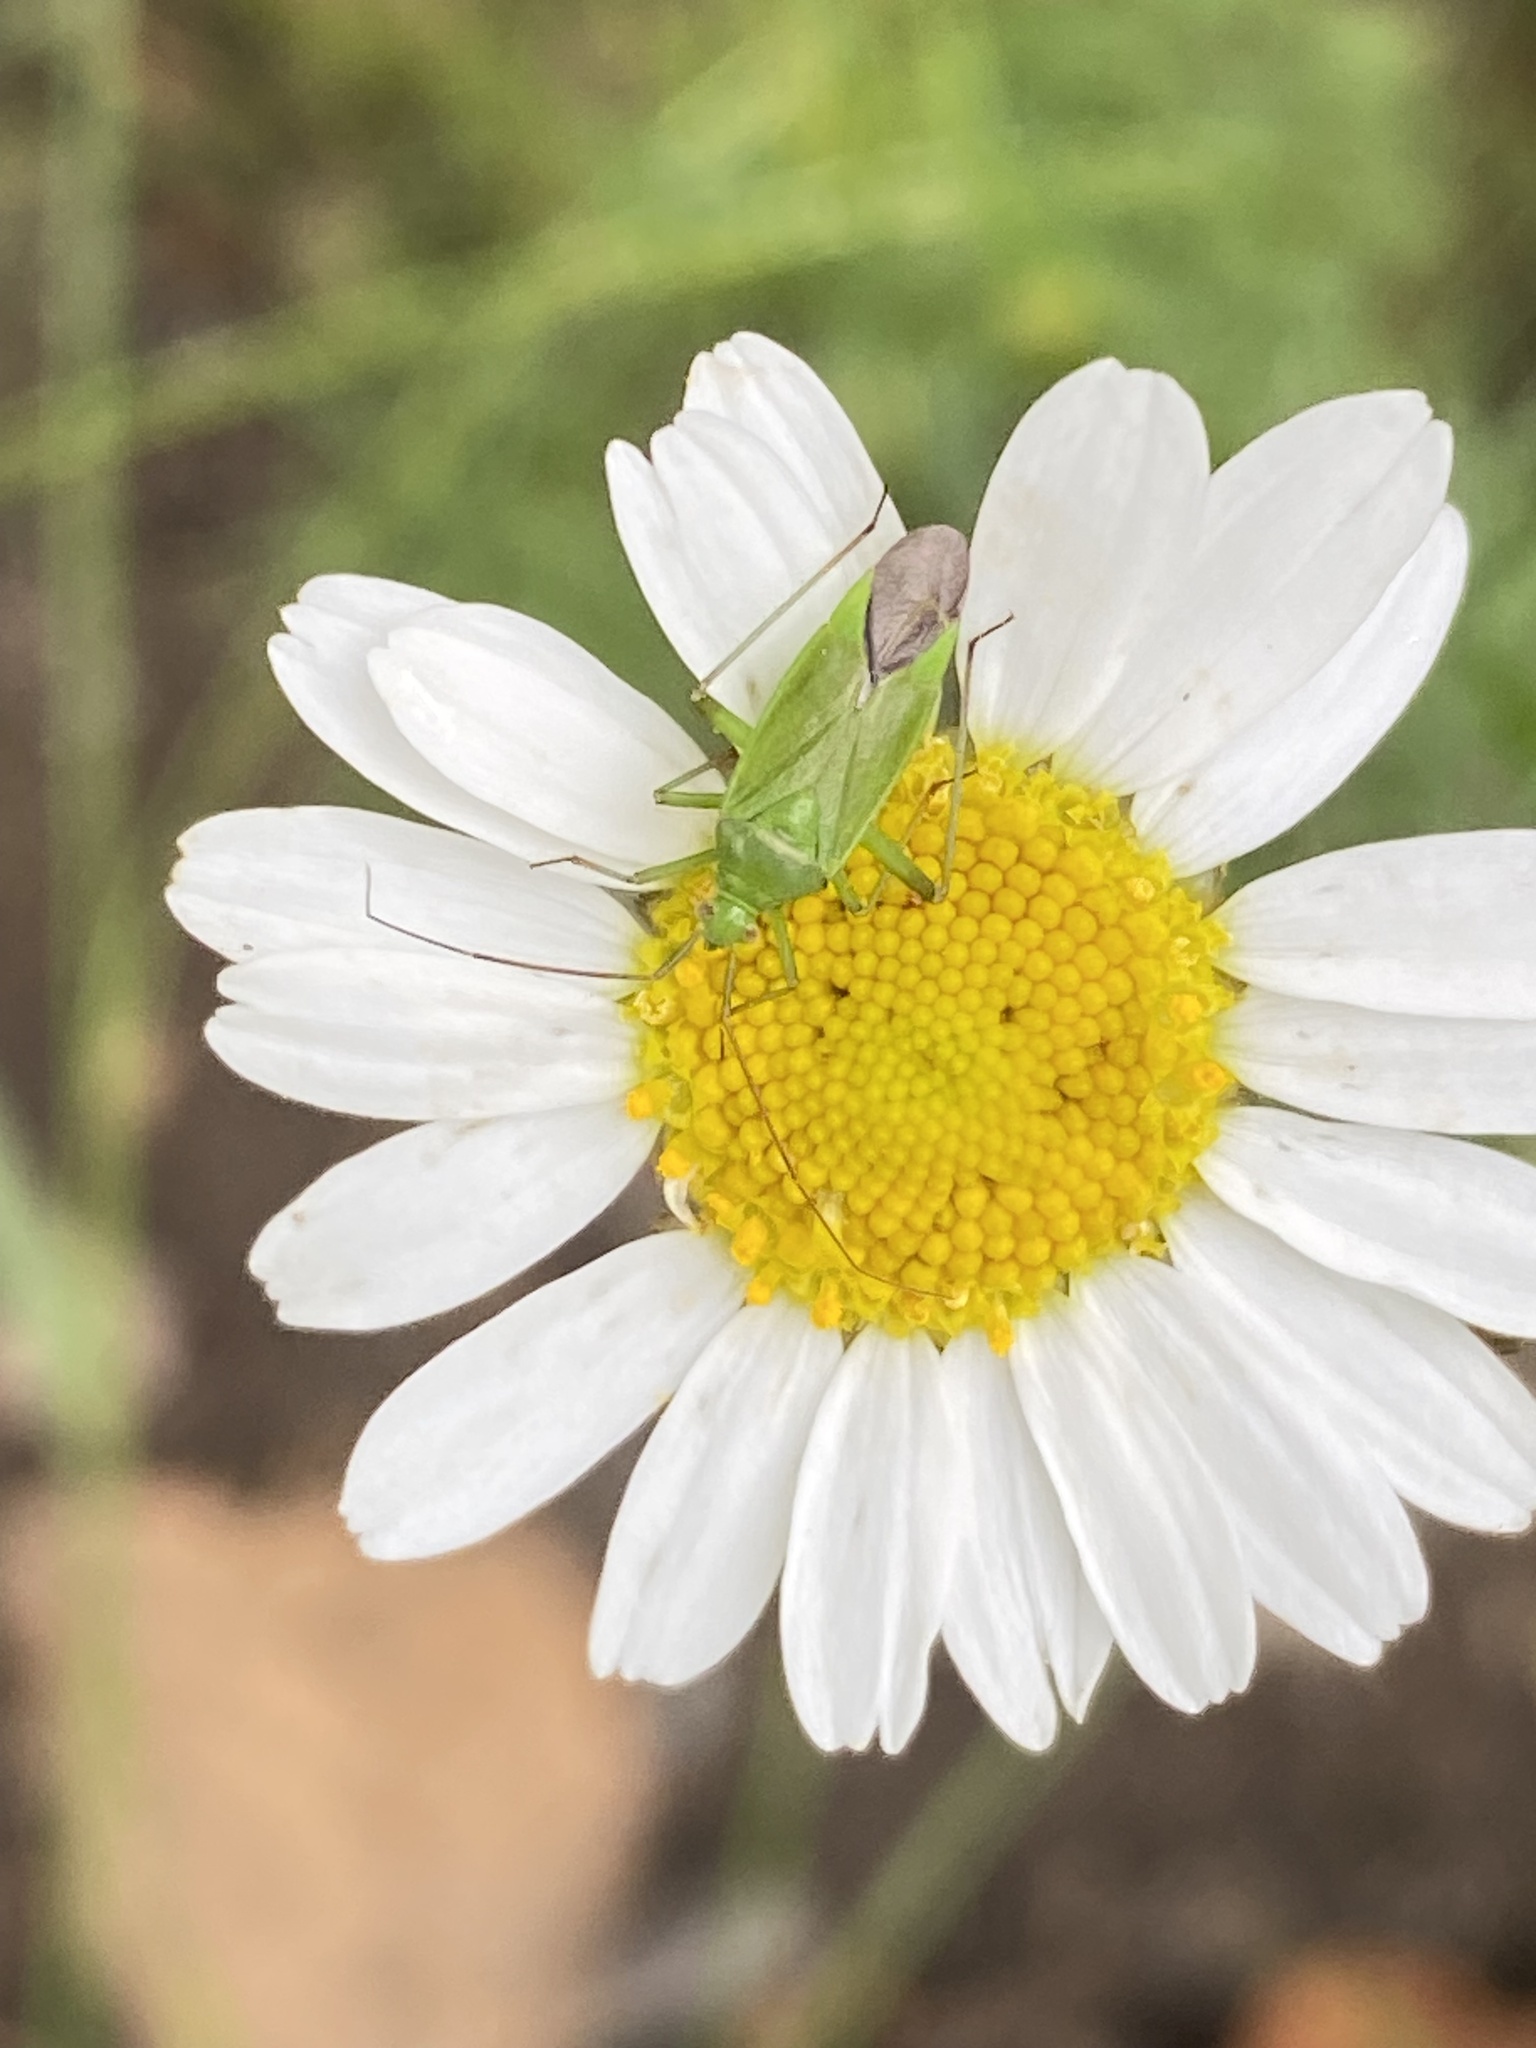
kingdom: Animalia
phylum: Arthropoda
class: Insecta
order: Hemiptera
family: Miridae
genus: Calocoris
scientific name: Calocoris affinis
